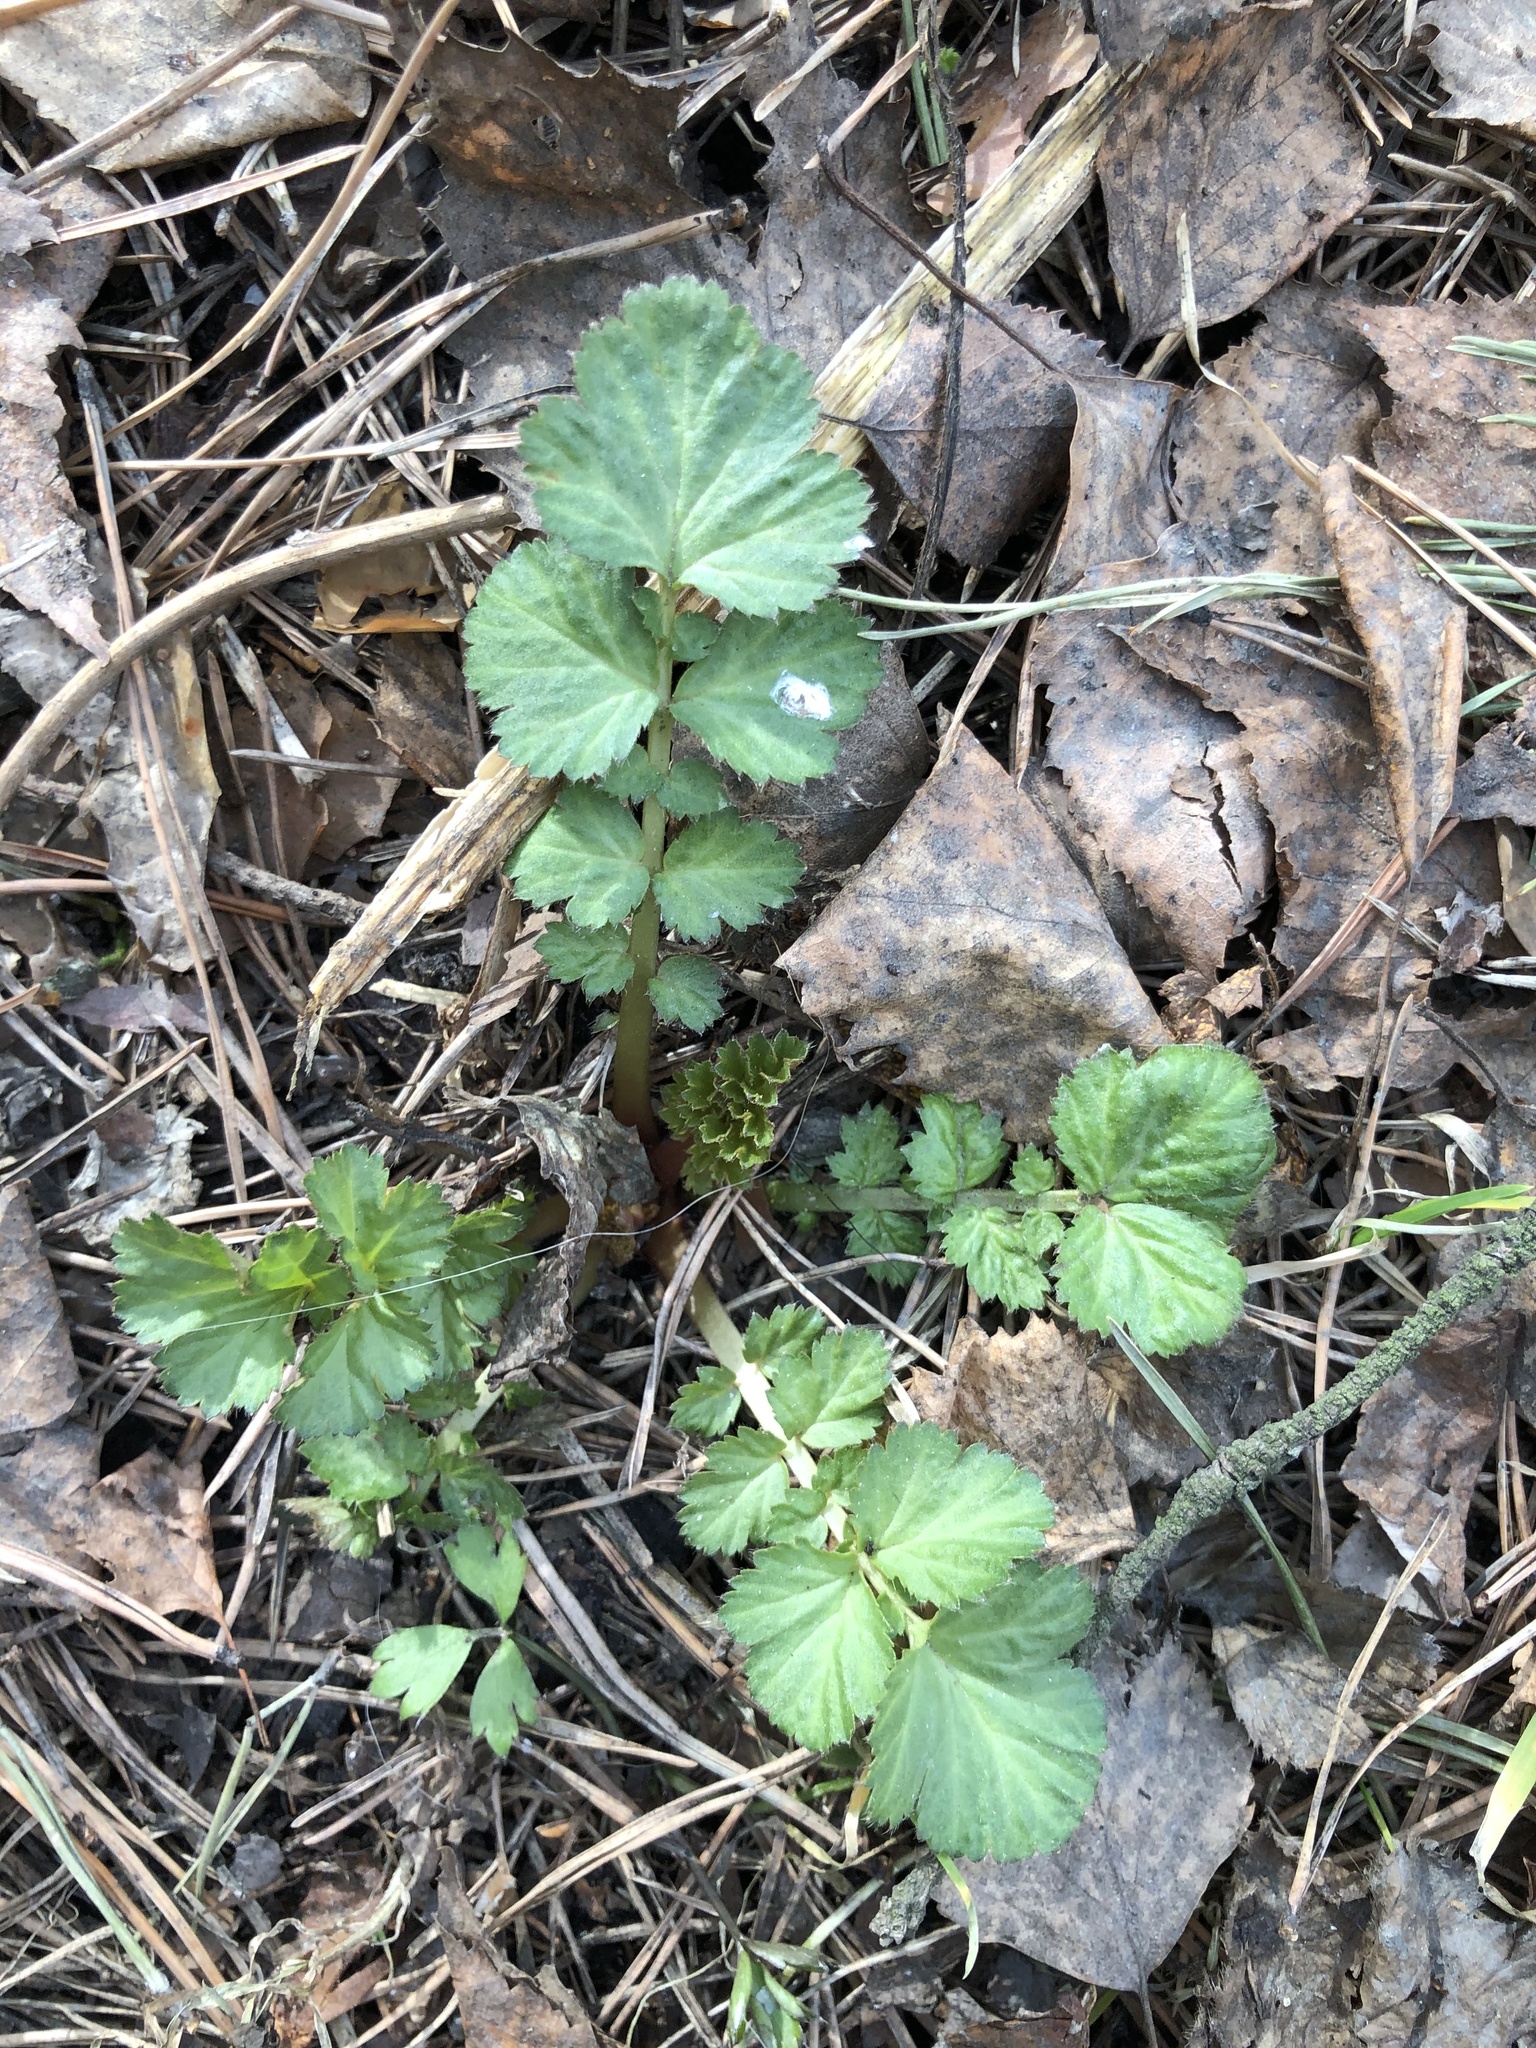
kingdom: Plantae
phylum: Tracheophyta
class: Magnoliopsida
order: Rosales
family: Rosaceae
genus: Geum
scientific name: Geum aleppicum
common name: Yellow avens
